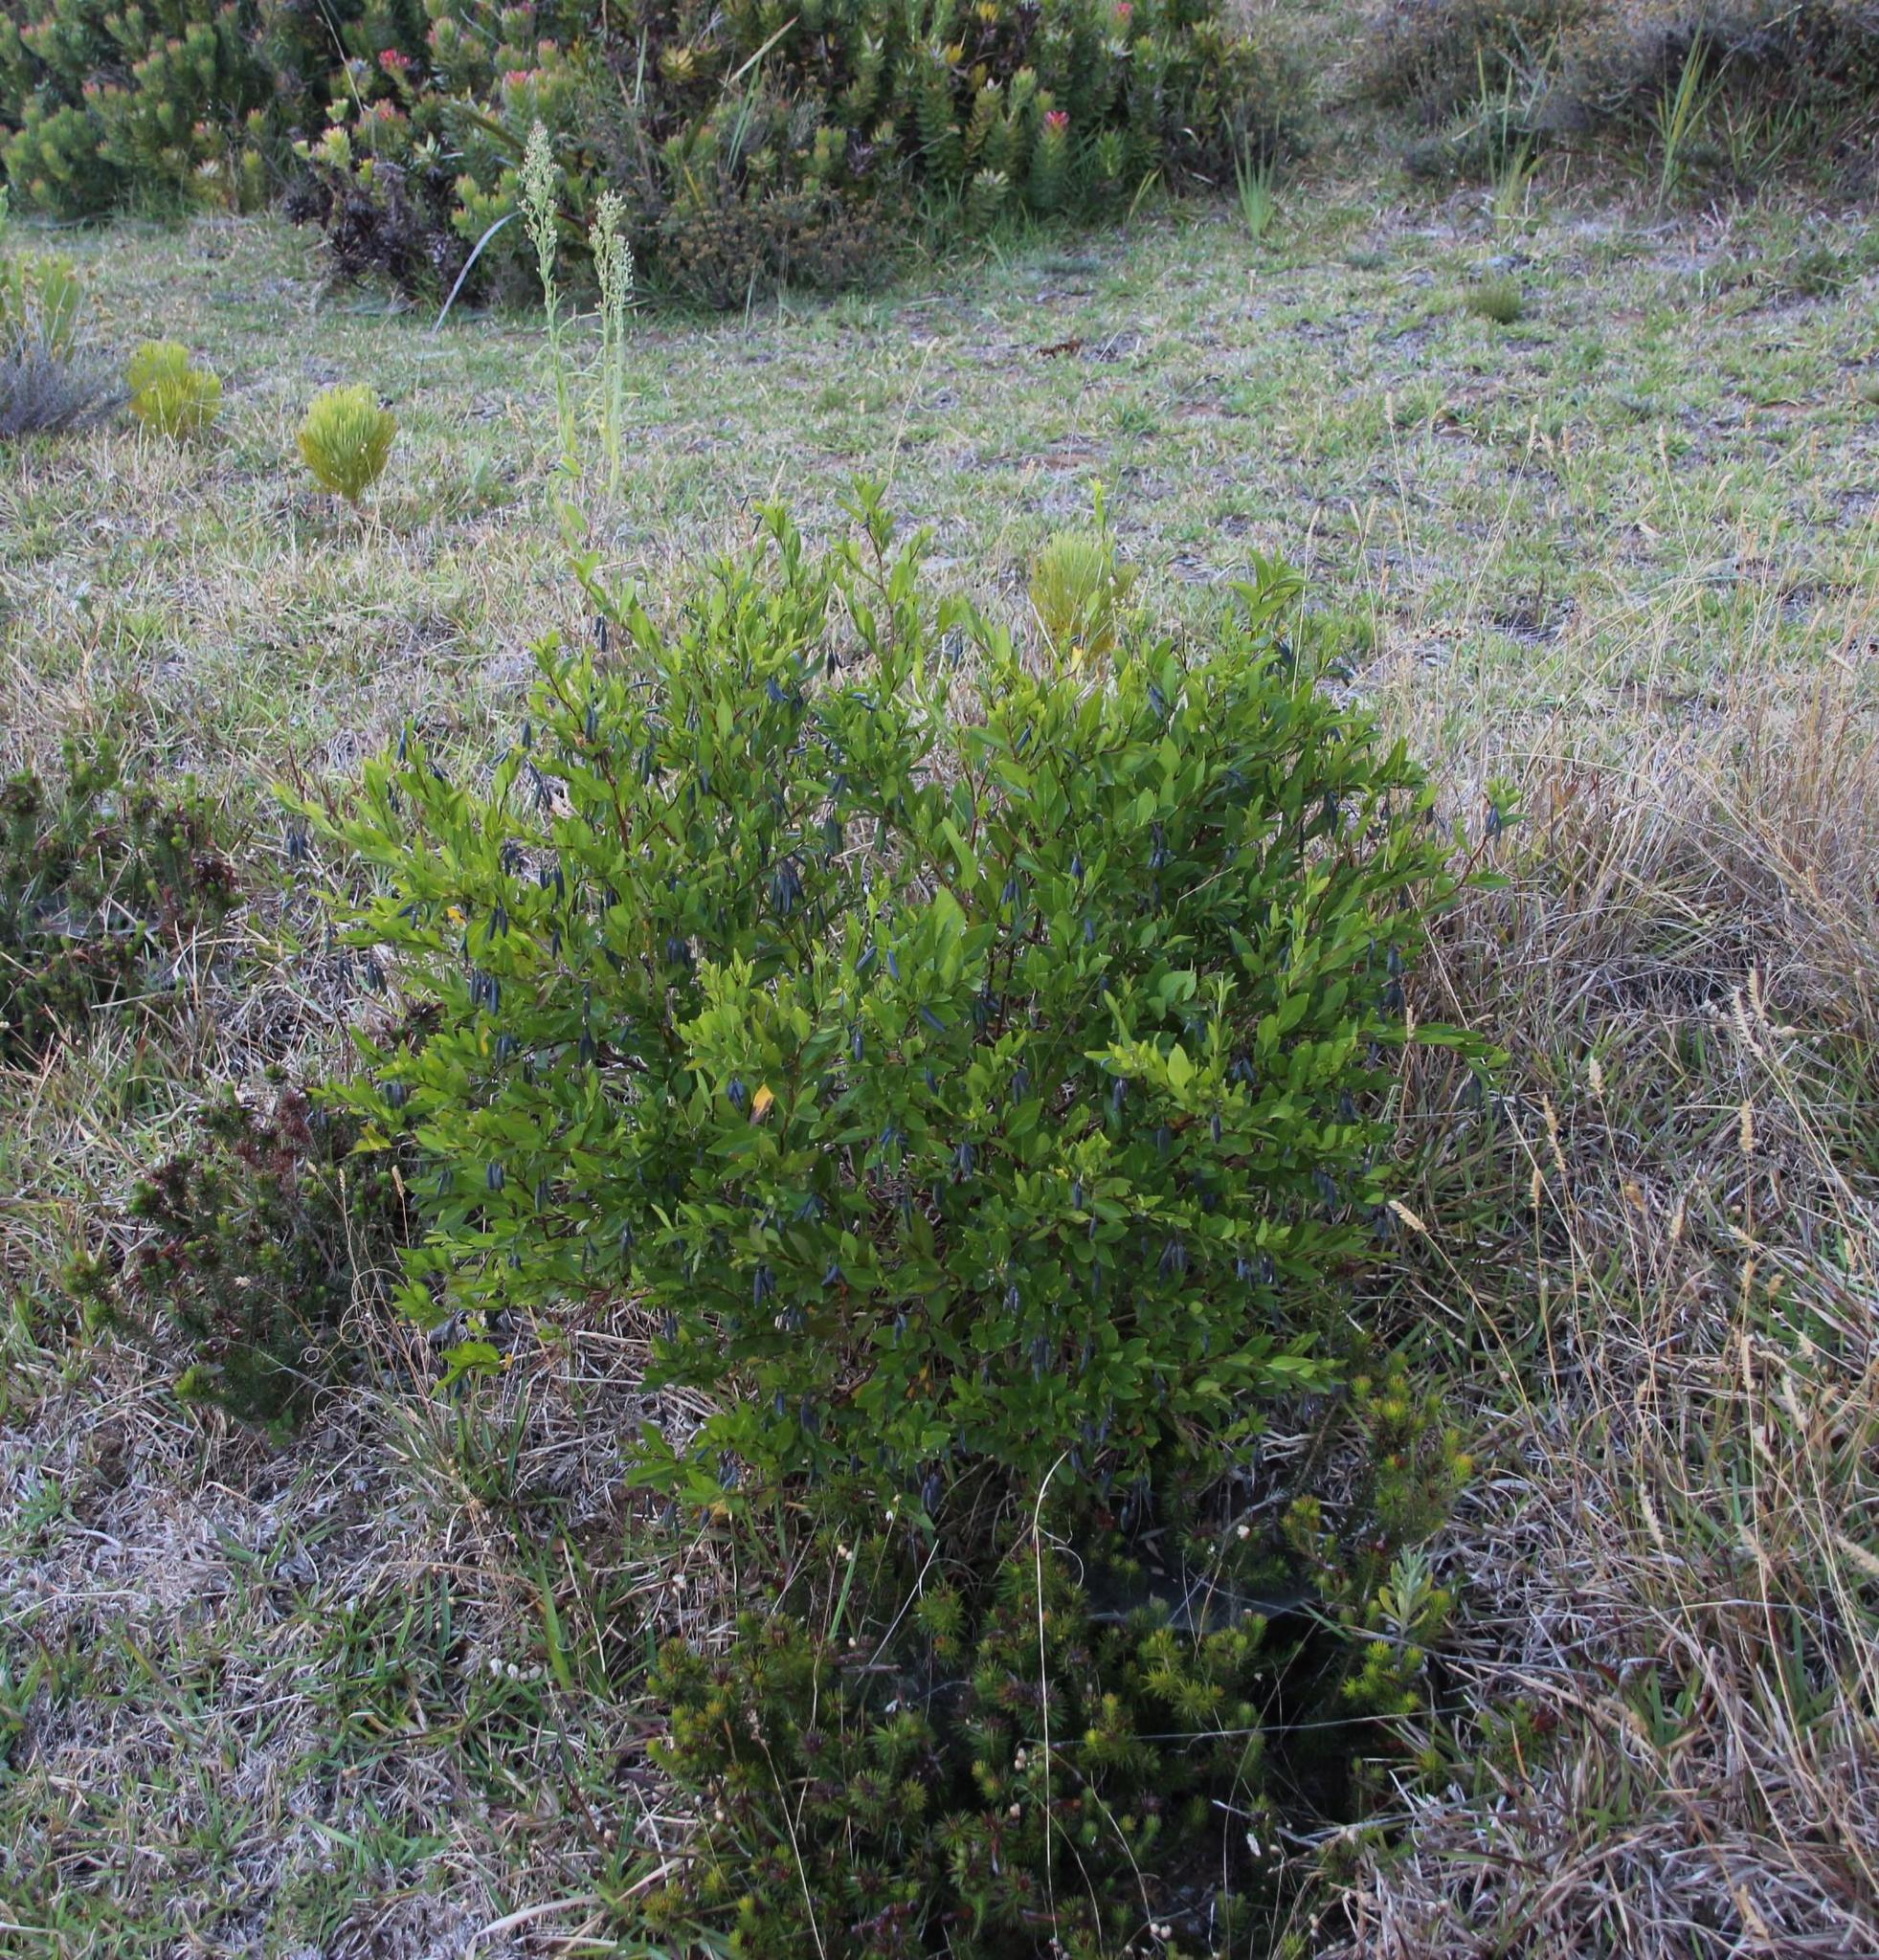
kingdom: Plantae
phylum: Tracheophyta
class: Magnoliopsida
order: Apiales
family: Pittosporaceae
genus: Billardiera
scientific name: Billardiera heterophylla
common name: Bluebell creeper
